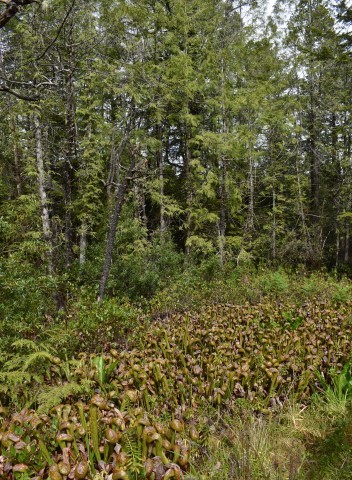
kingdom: Plantae
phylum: Tracheophyta
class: Magnoliopsida
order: Ericales
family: Sarraceniaceae
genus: Darlingtonia
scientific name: Darlingtonia californica
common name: California pitcher plant
